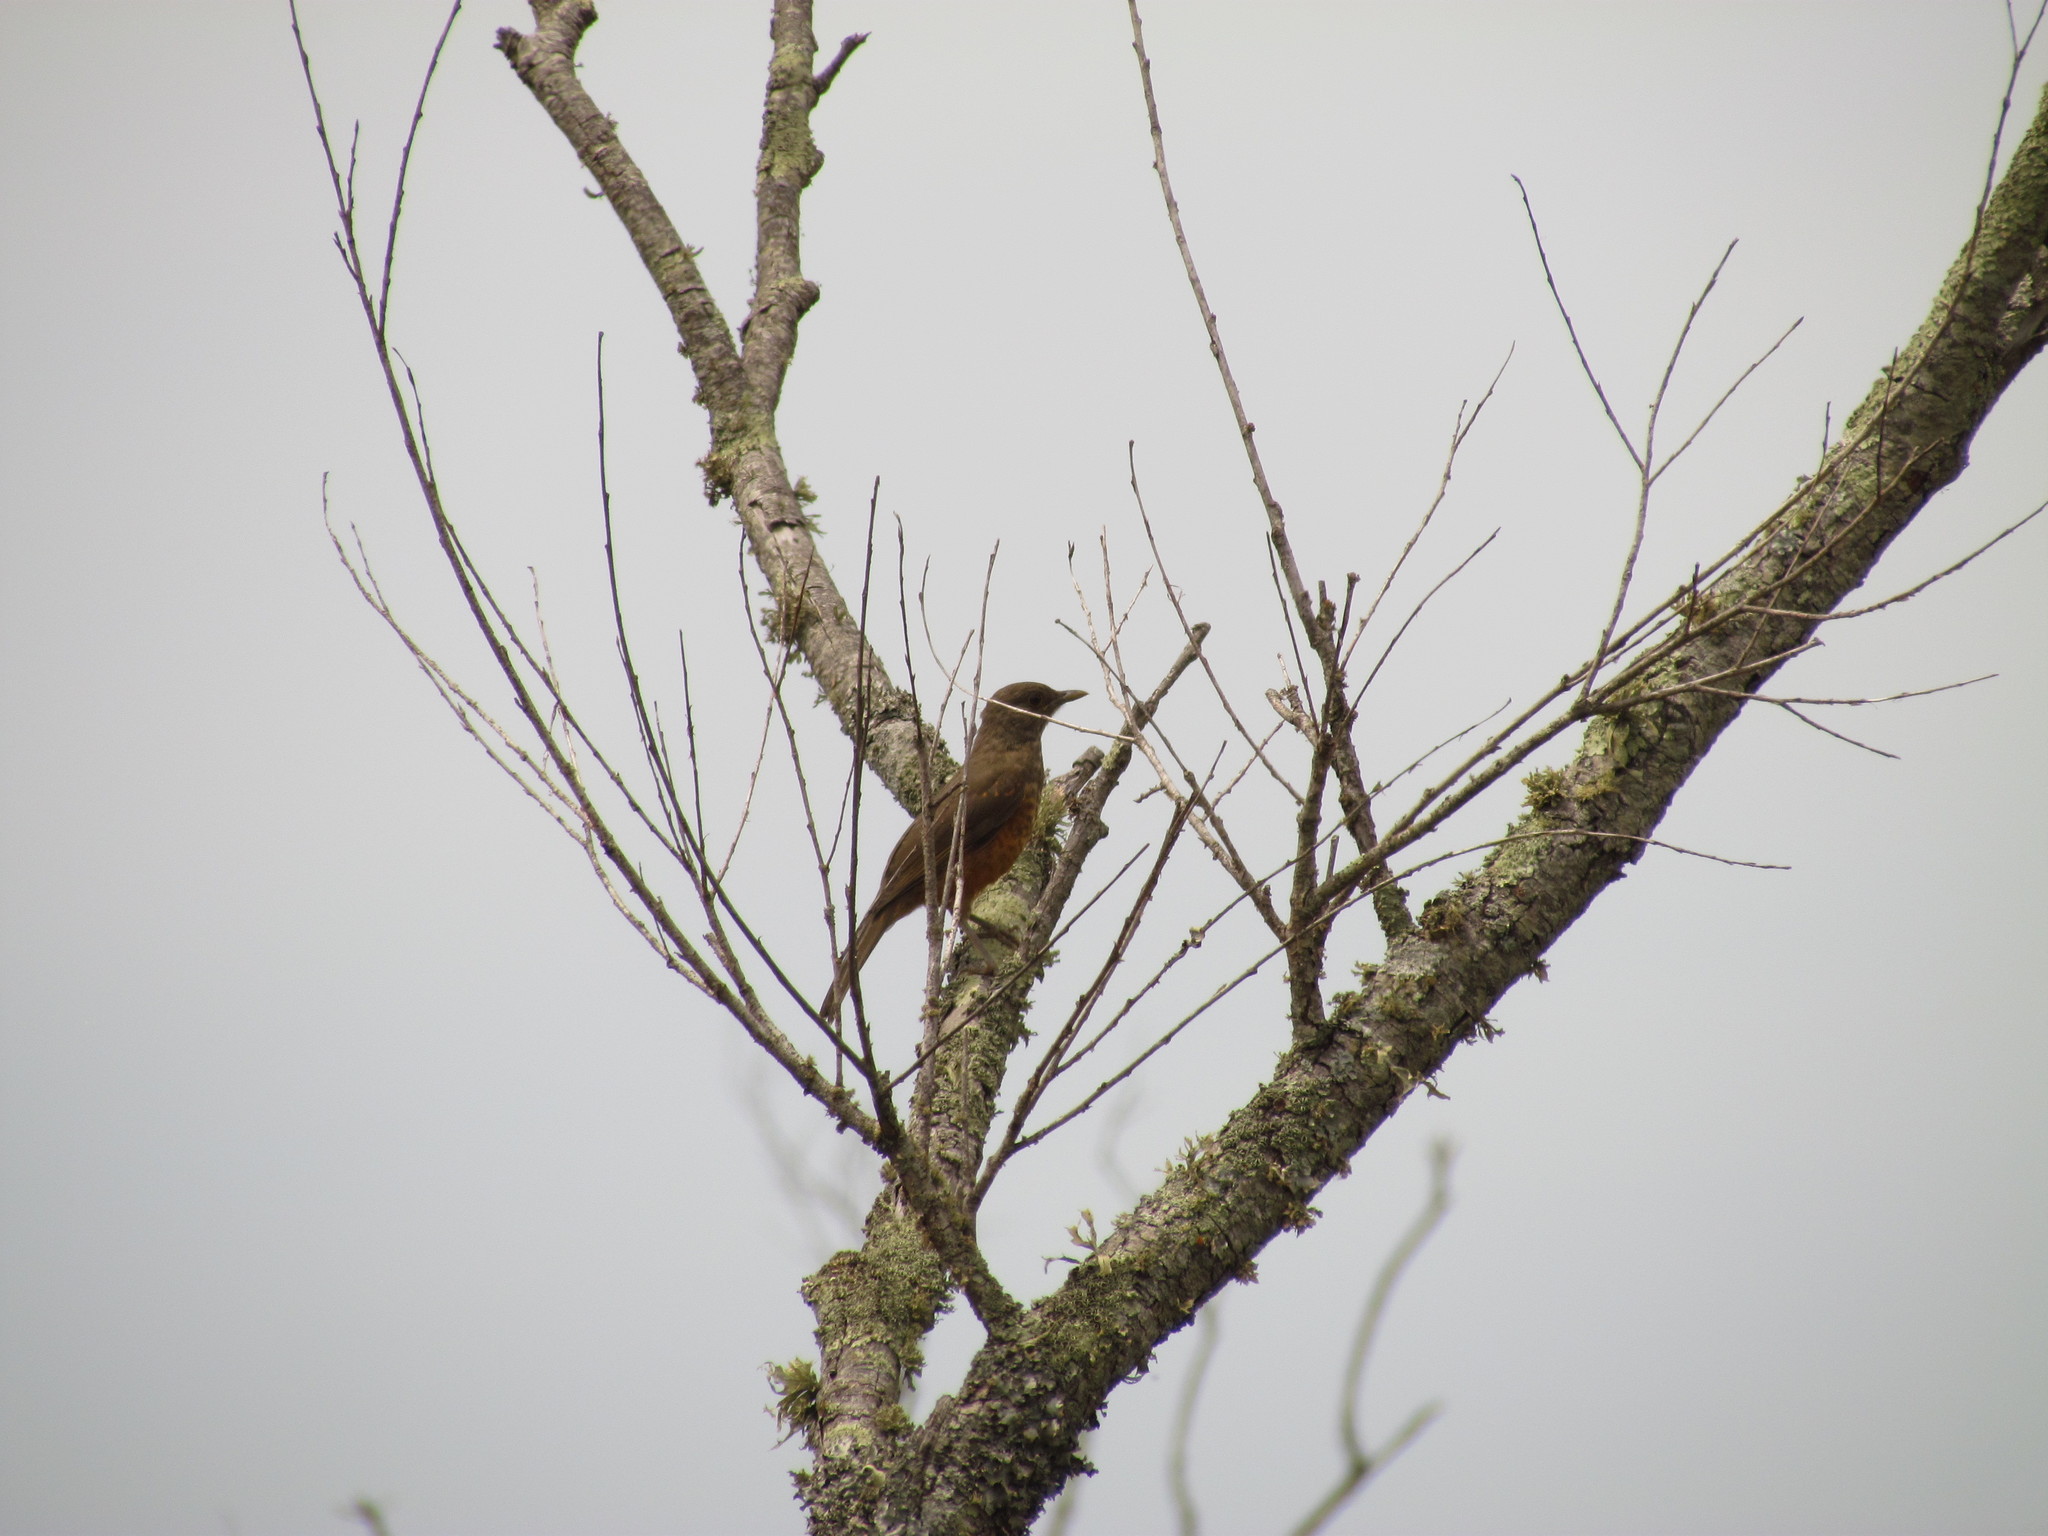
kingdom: Animalia
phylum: Chordata
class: Aves
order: Passeriformes
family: Turdidae
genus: Turdus
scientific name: Turdus rufiventris
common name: Rufous-bellied thrush
